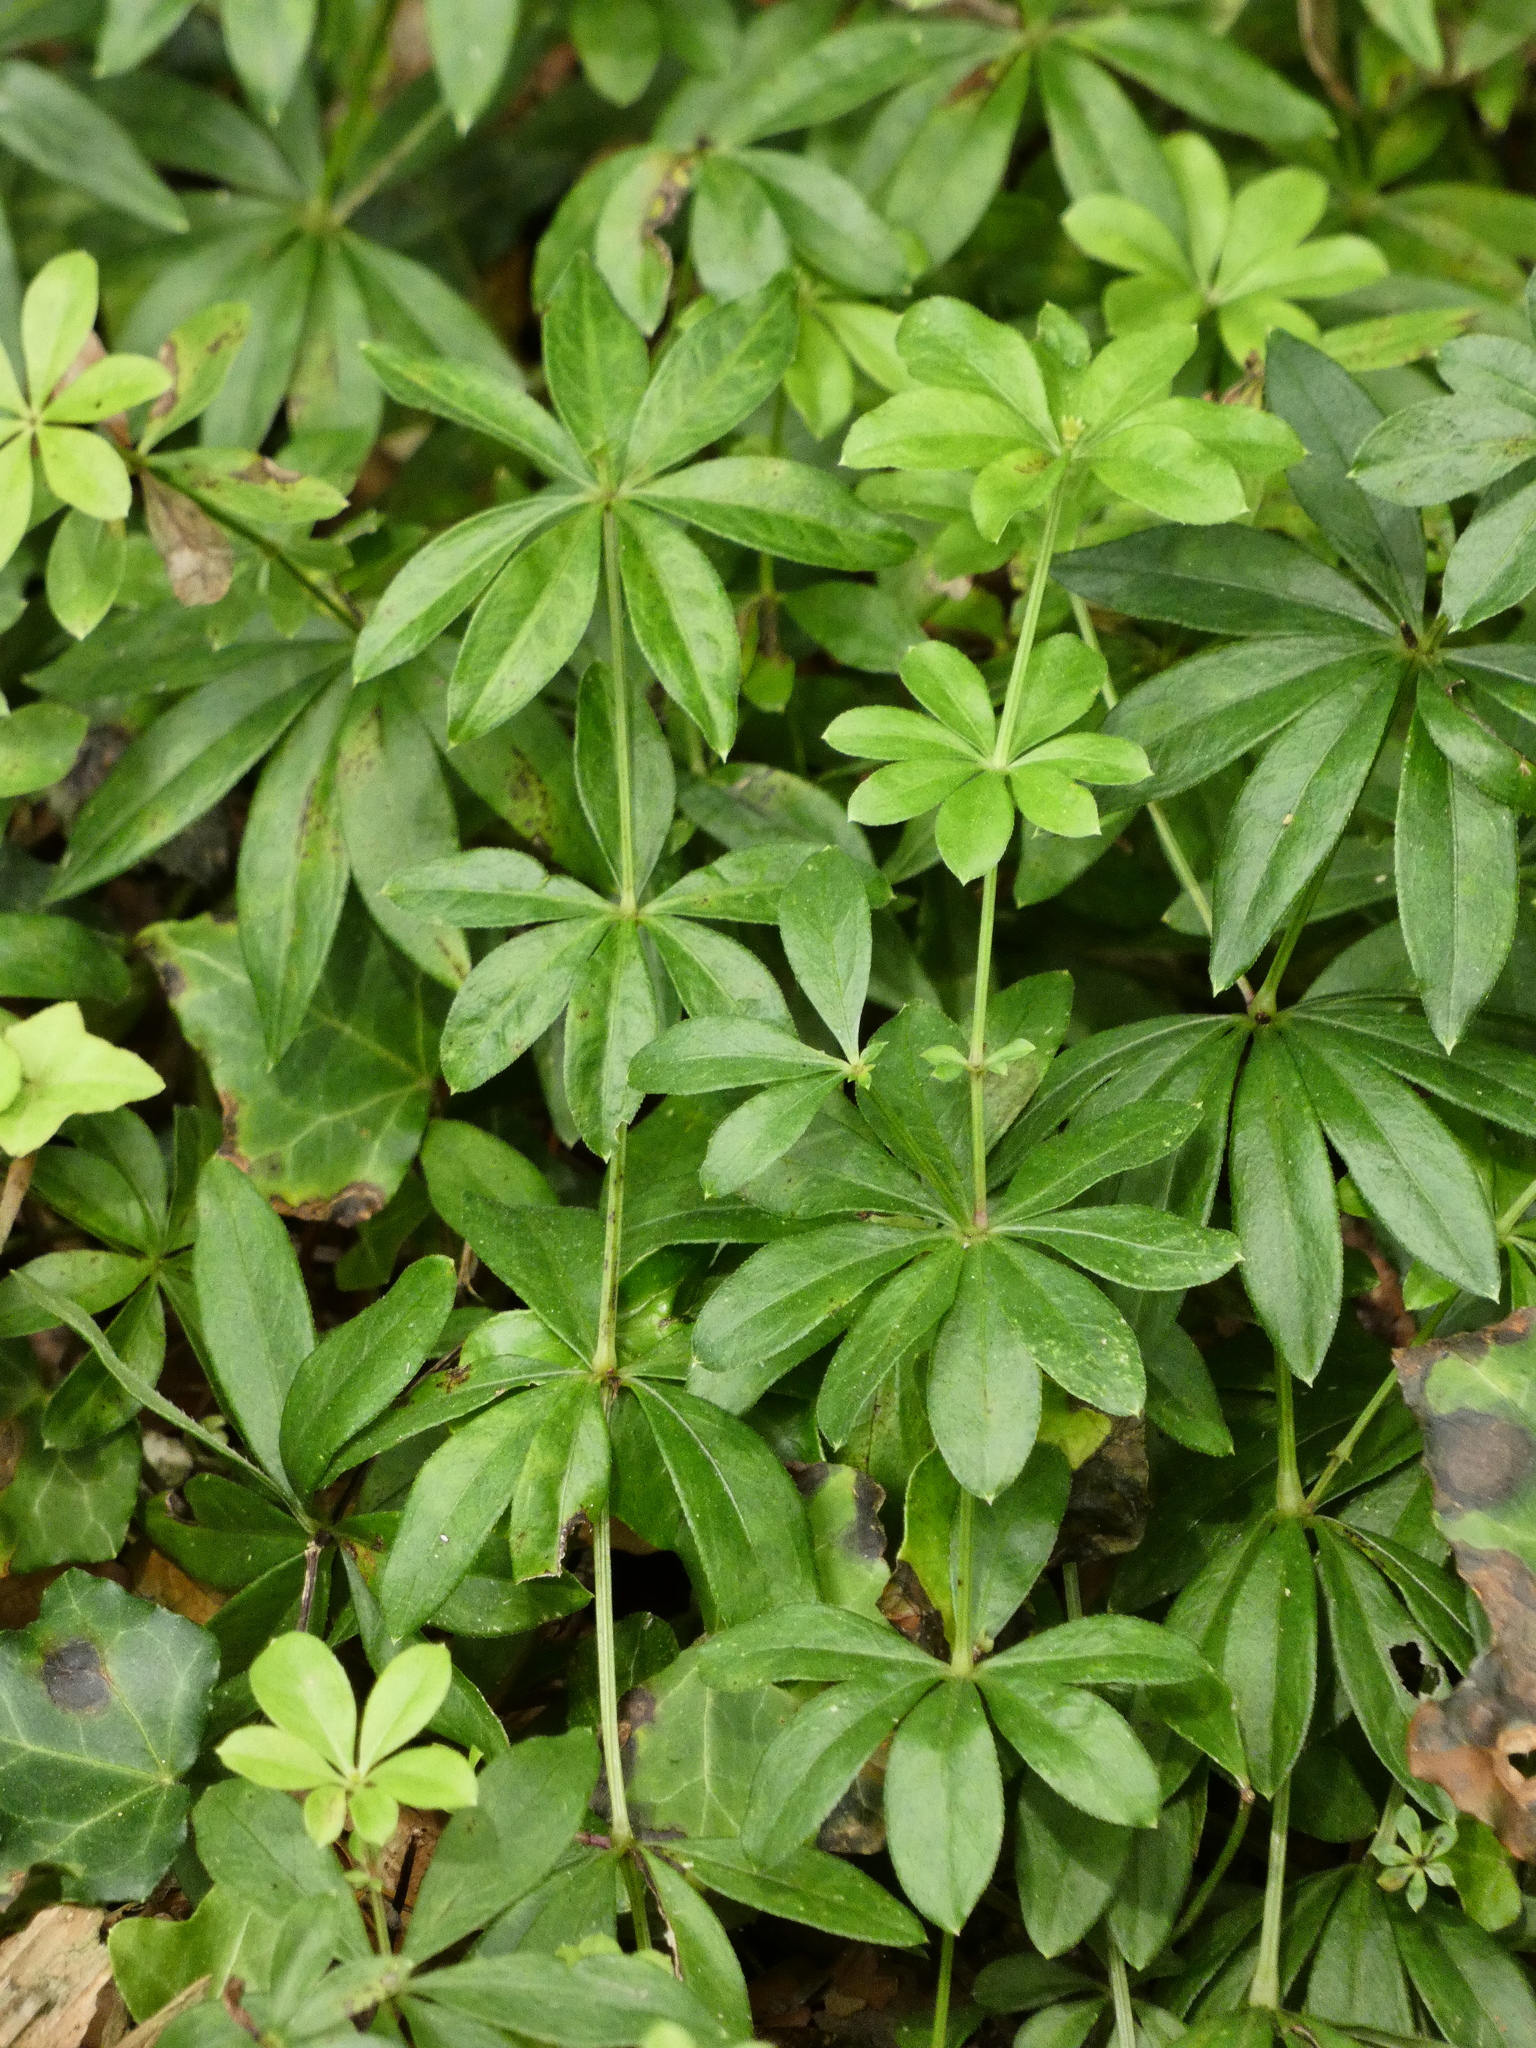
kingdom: Plantae
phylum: Tracheophyta
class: Magnoliopsida
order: Gentianales
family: Rubiaceae
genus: Galium
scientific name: Galium odoratum
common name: Sweet woodruff
